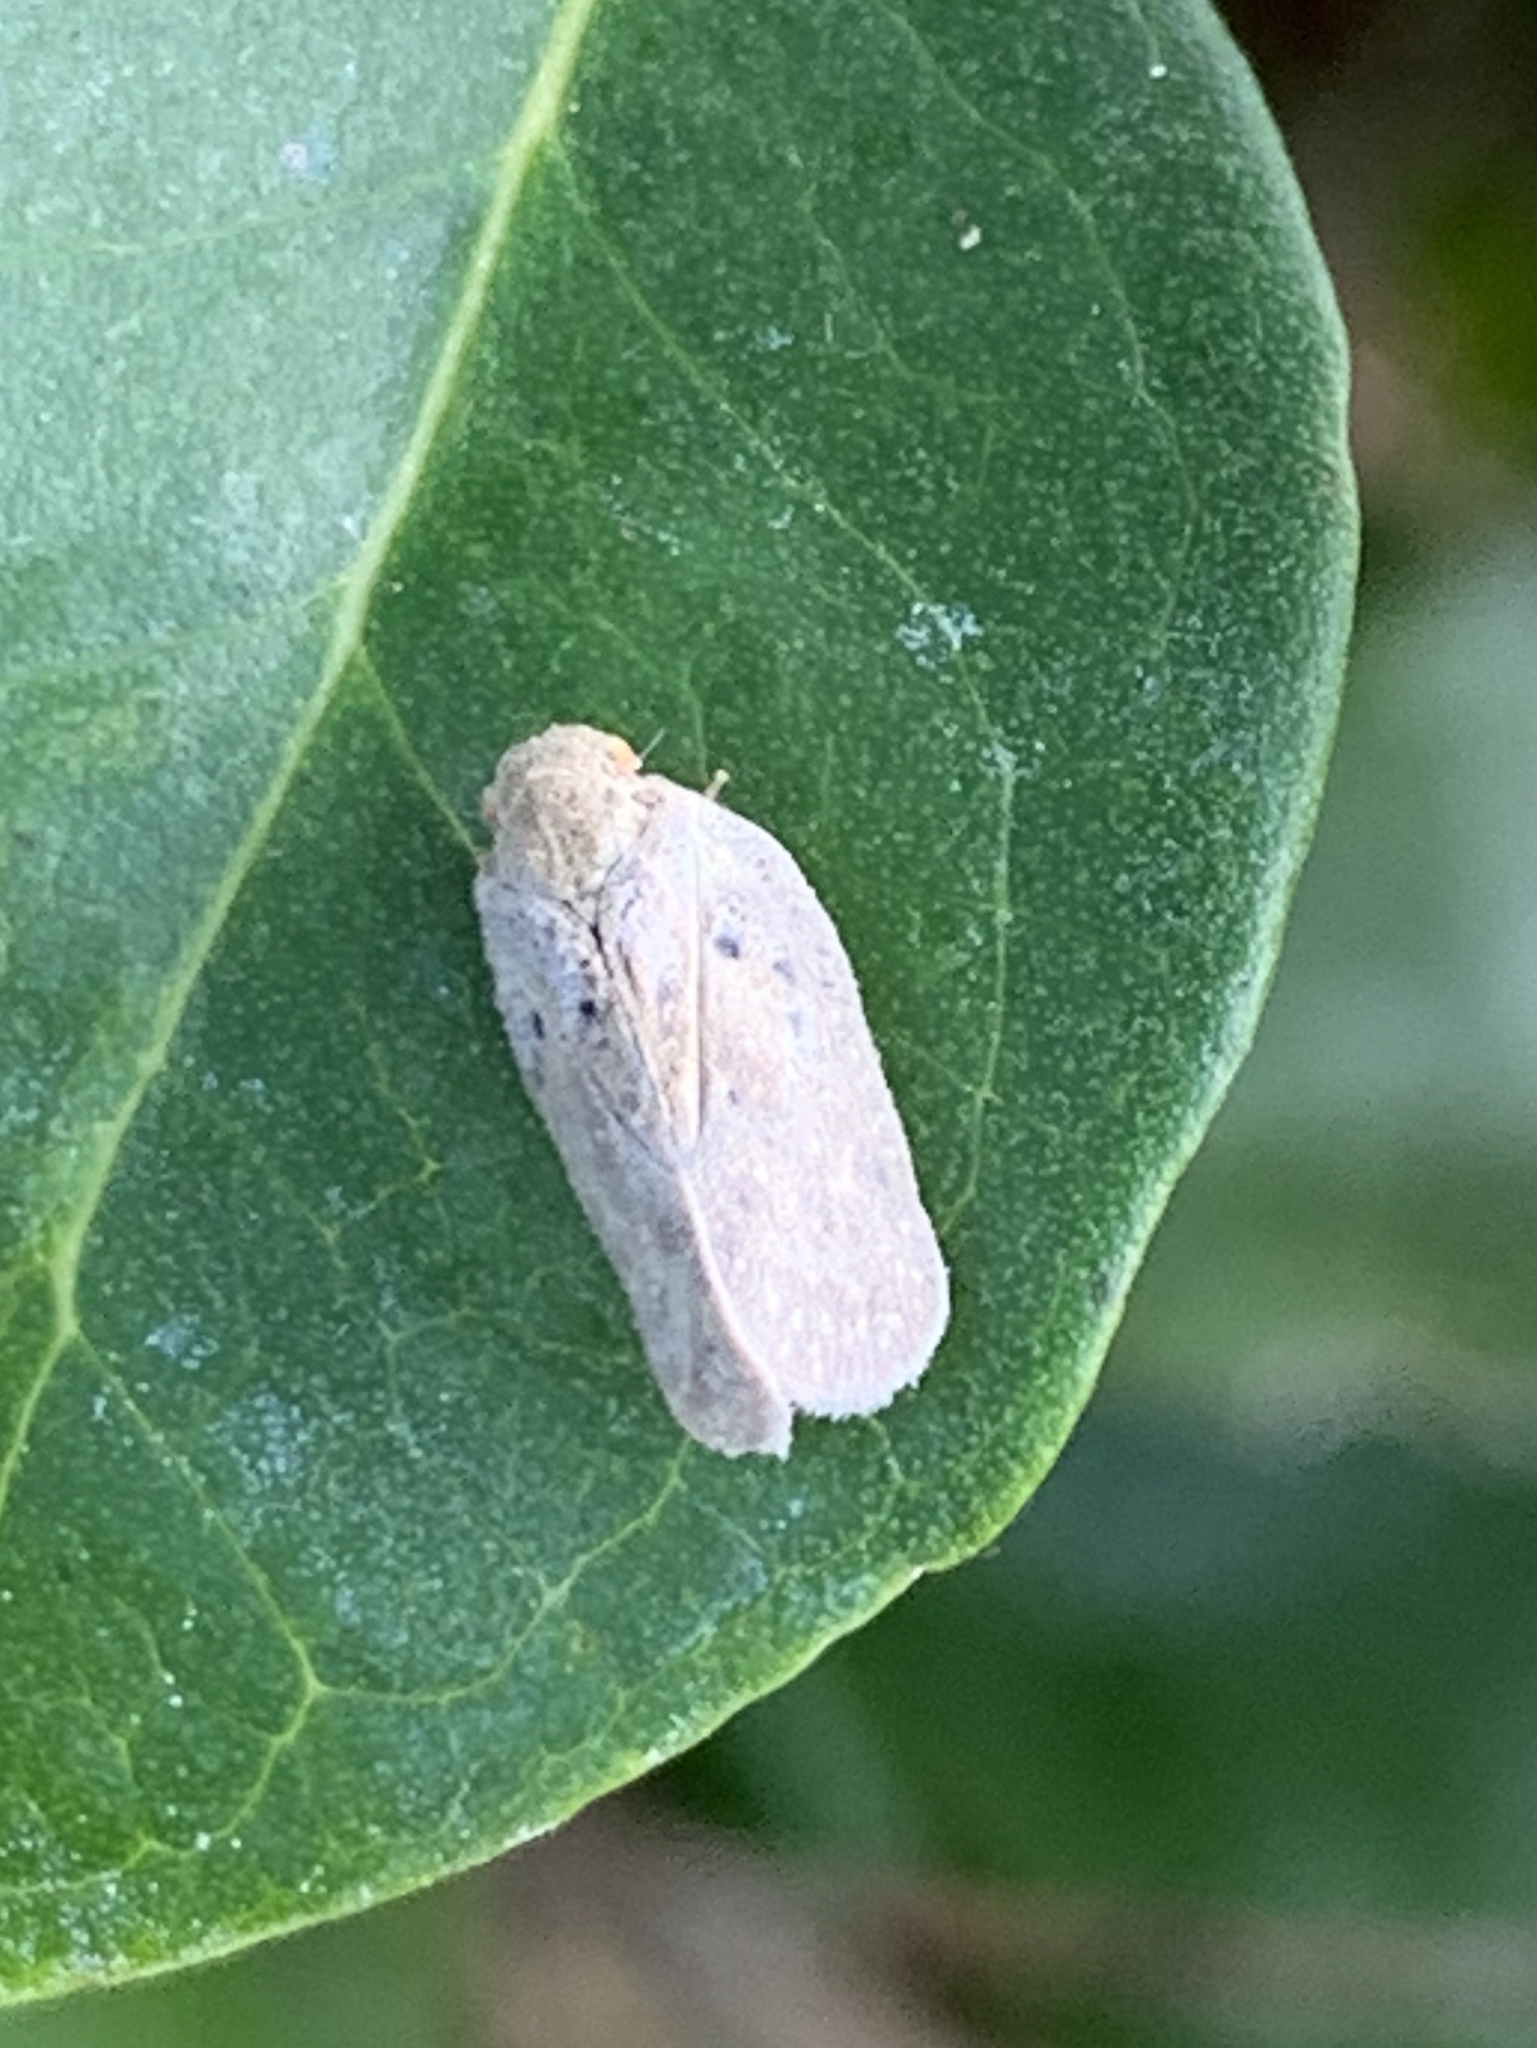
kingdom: Animalia
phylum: Arthropoda
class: Insecta
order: Hemiptera
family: Flatidae
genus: Melormenis
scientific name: Melormenis basalis
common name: Puerto rican planthopper
